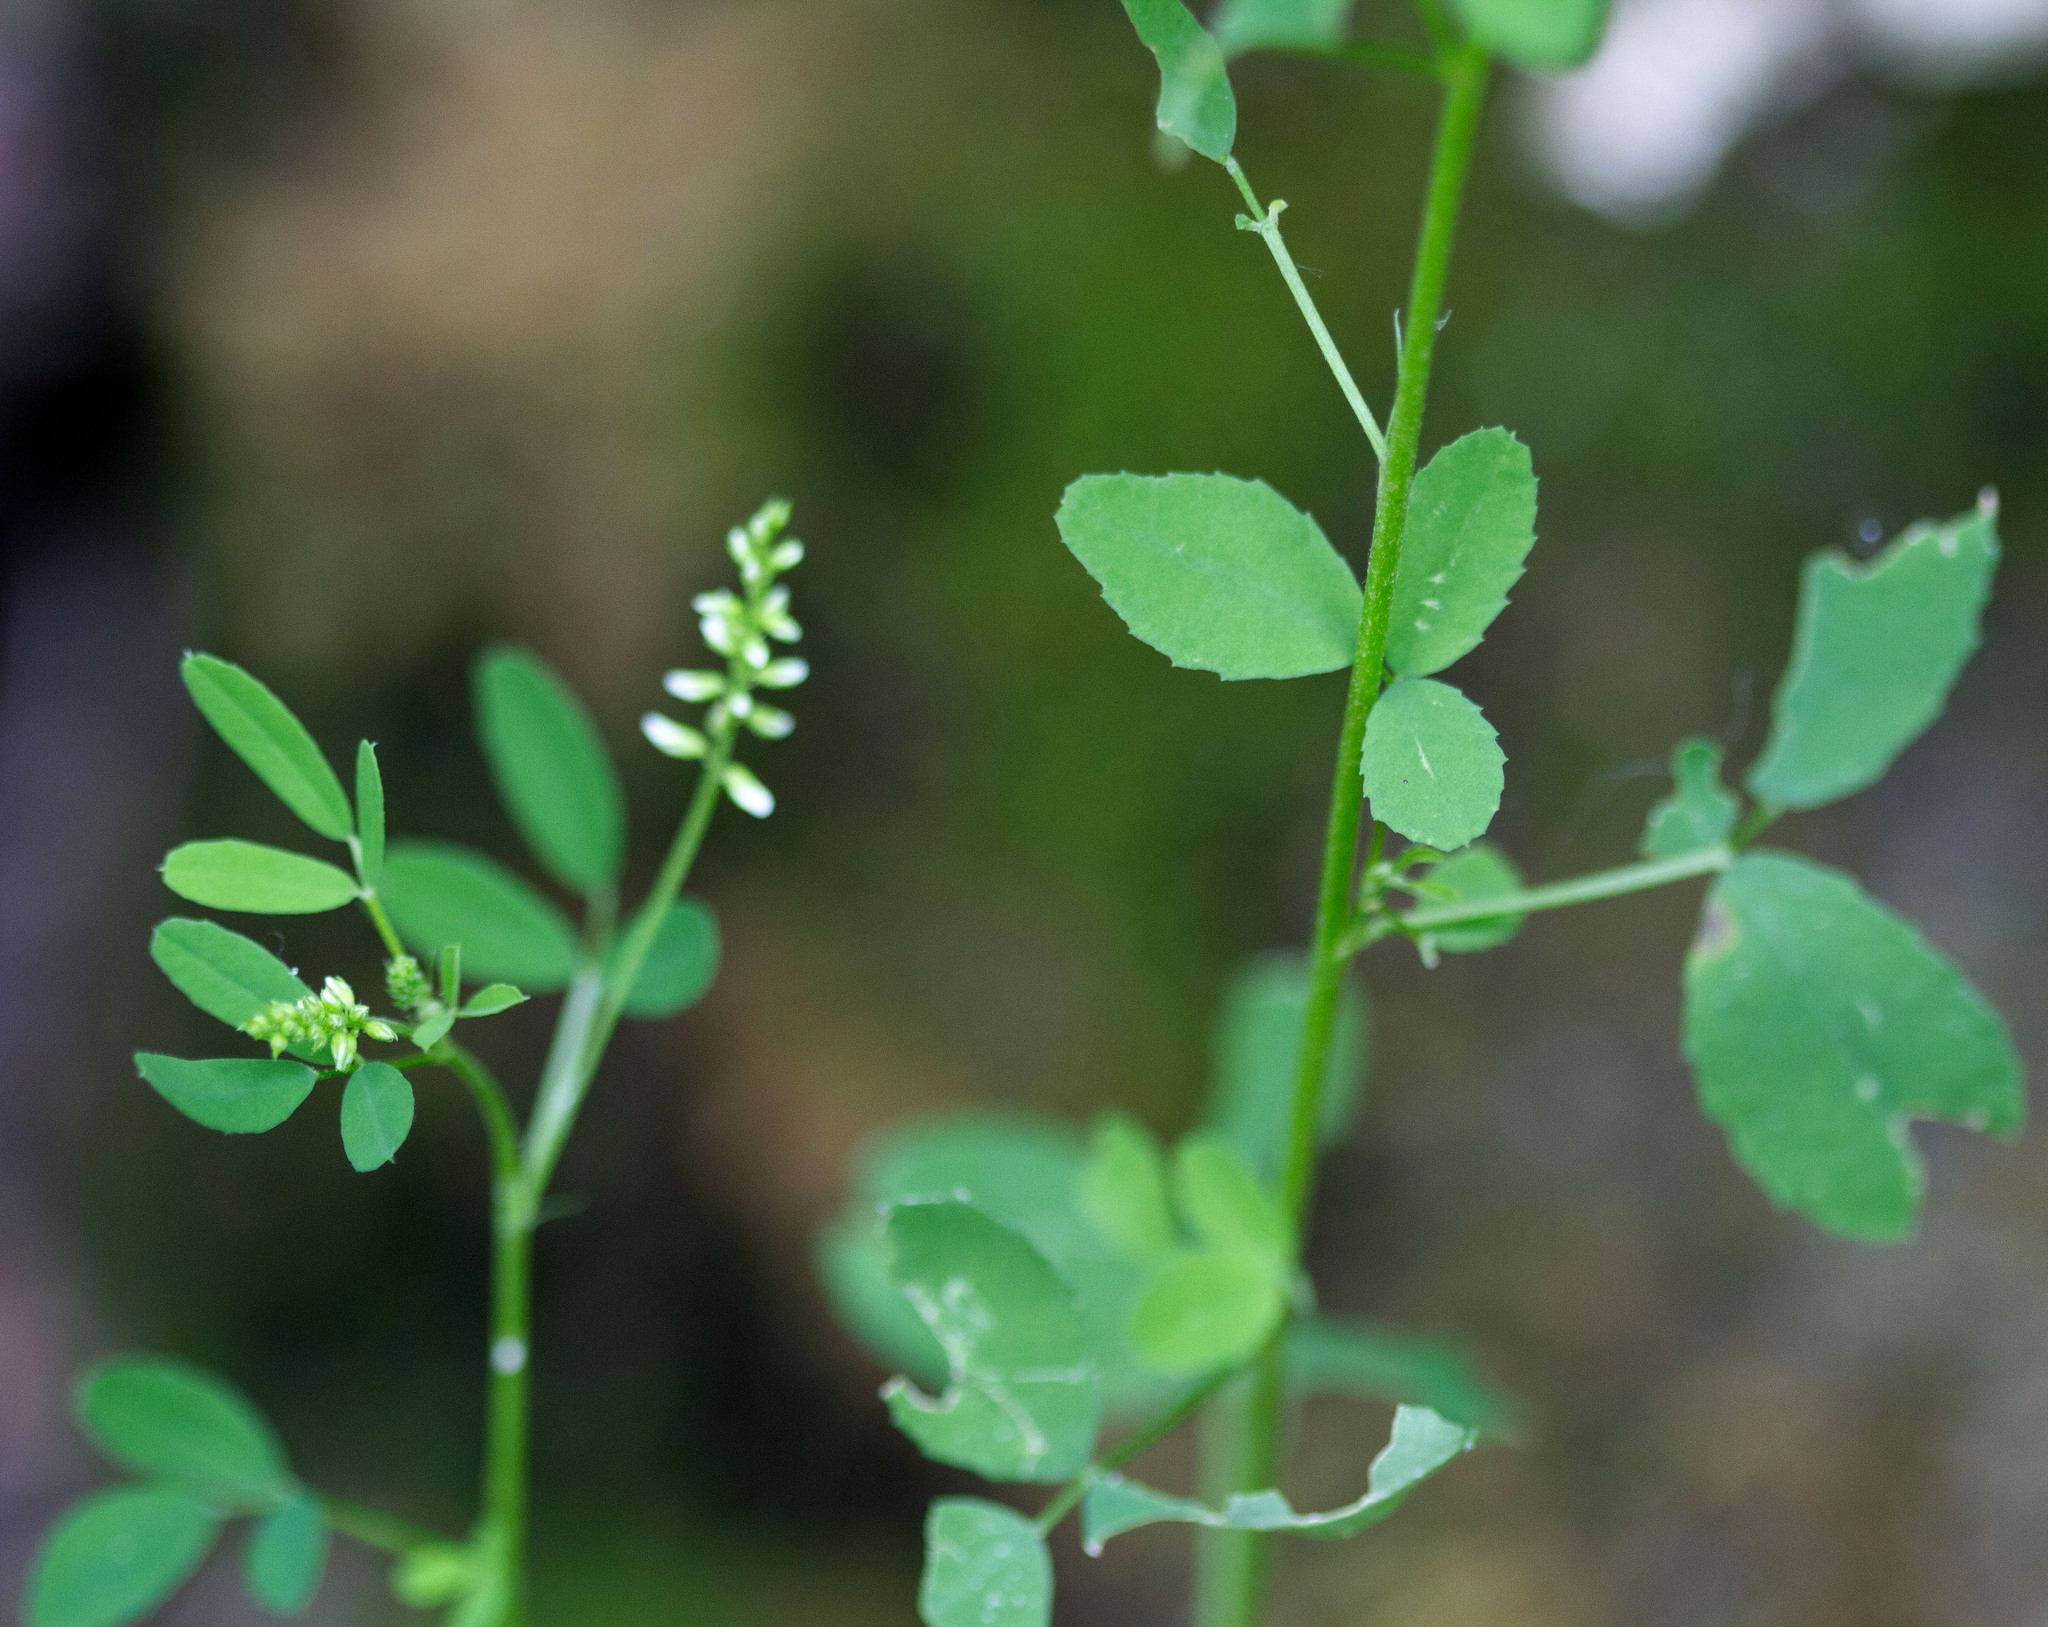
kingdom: Plantae
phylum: Tracheophyta
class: Magnoliopsida
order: Fabales
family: Fabaceae
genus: Melilotus
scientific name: Melilotus albus
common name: White melilot
